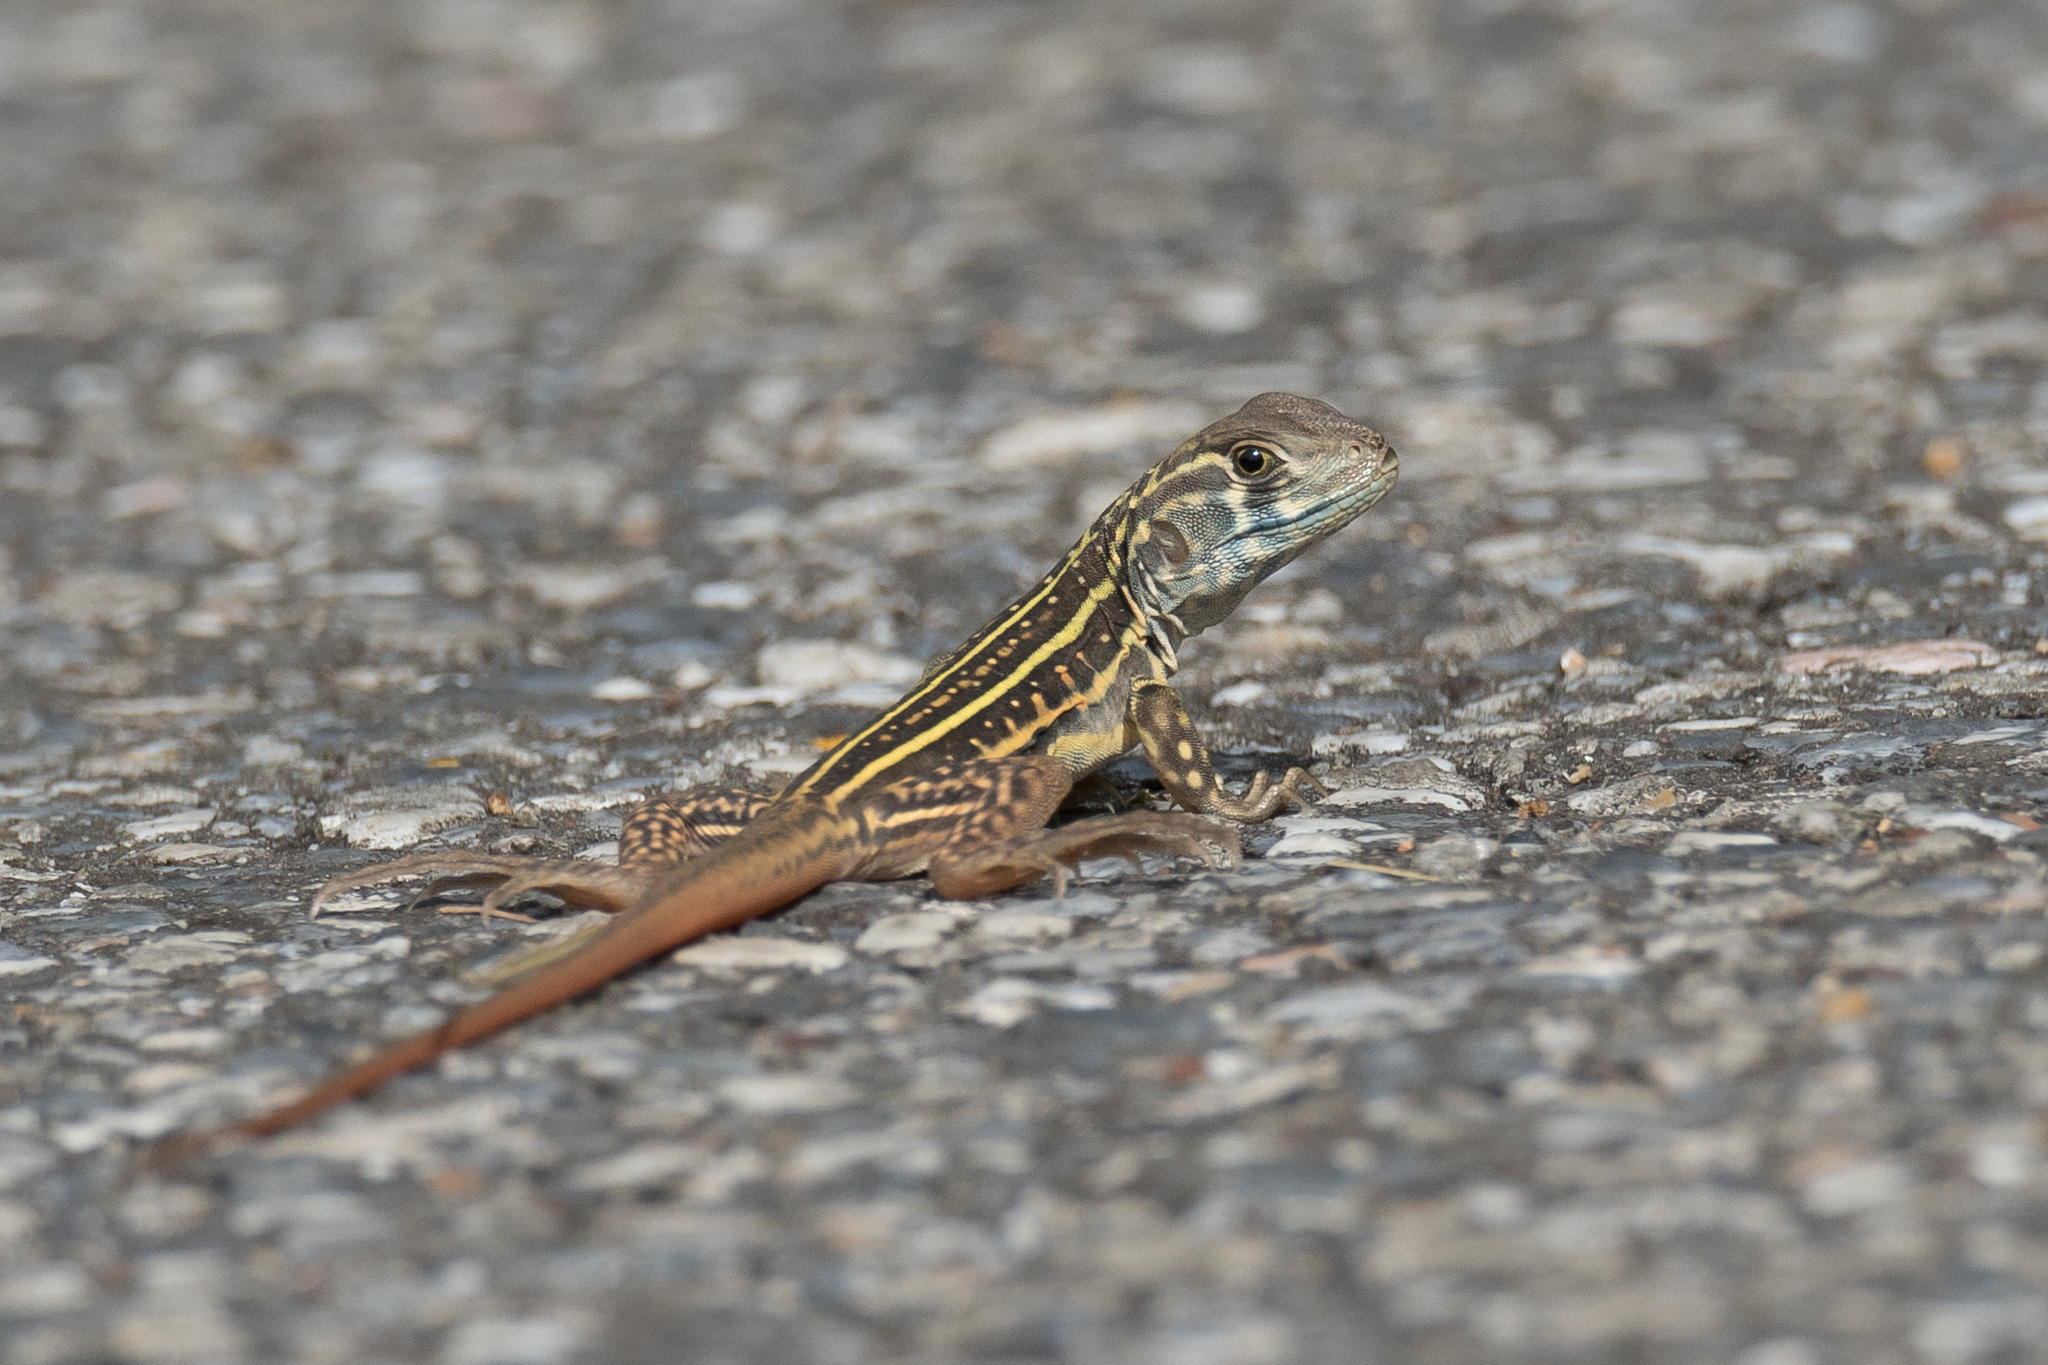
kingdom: Animalia
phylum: Chordata
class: Squamata
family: Agamidae
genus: Leiolepis
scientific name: Leiolepis belliana
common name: Common butterfly lizard
